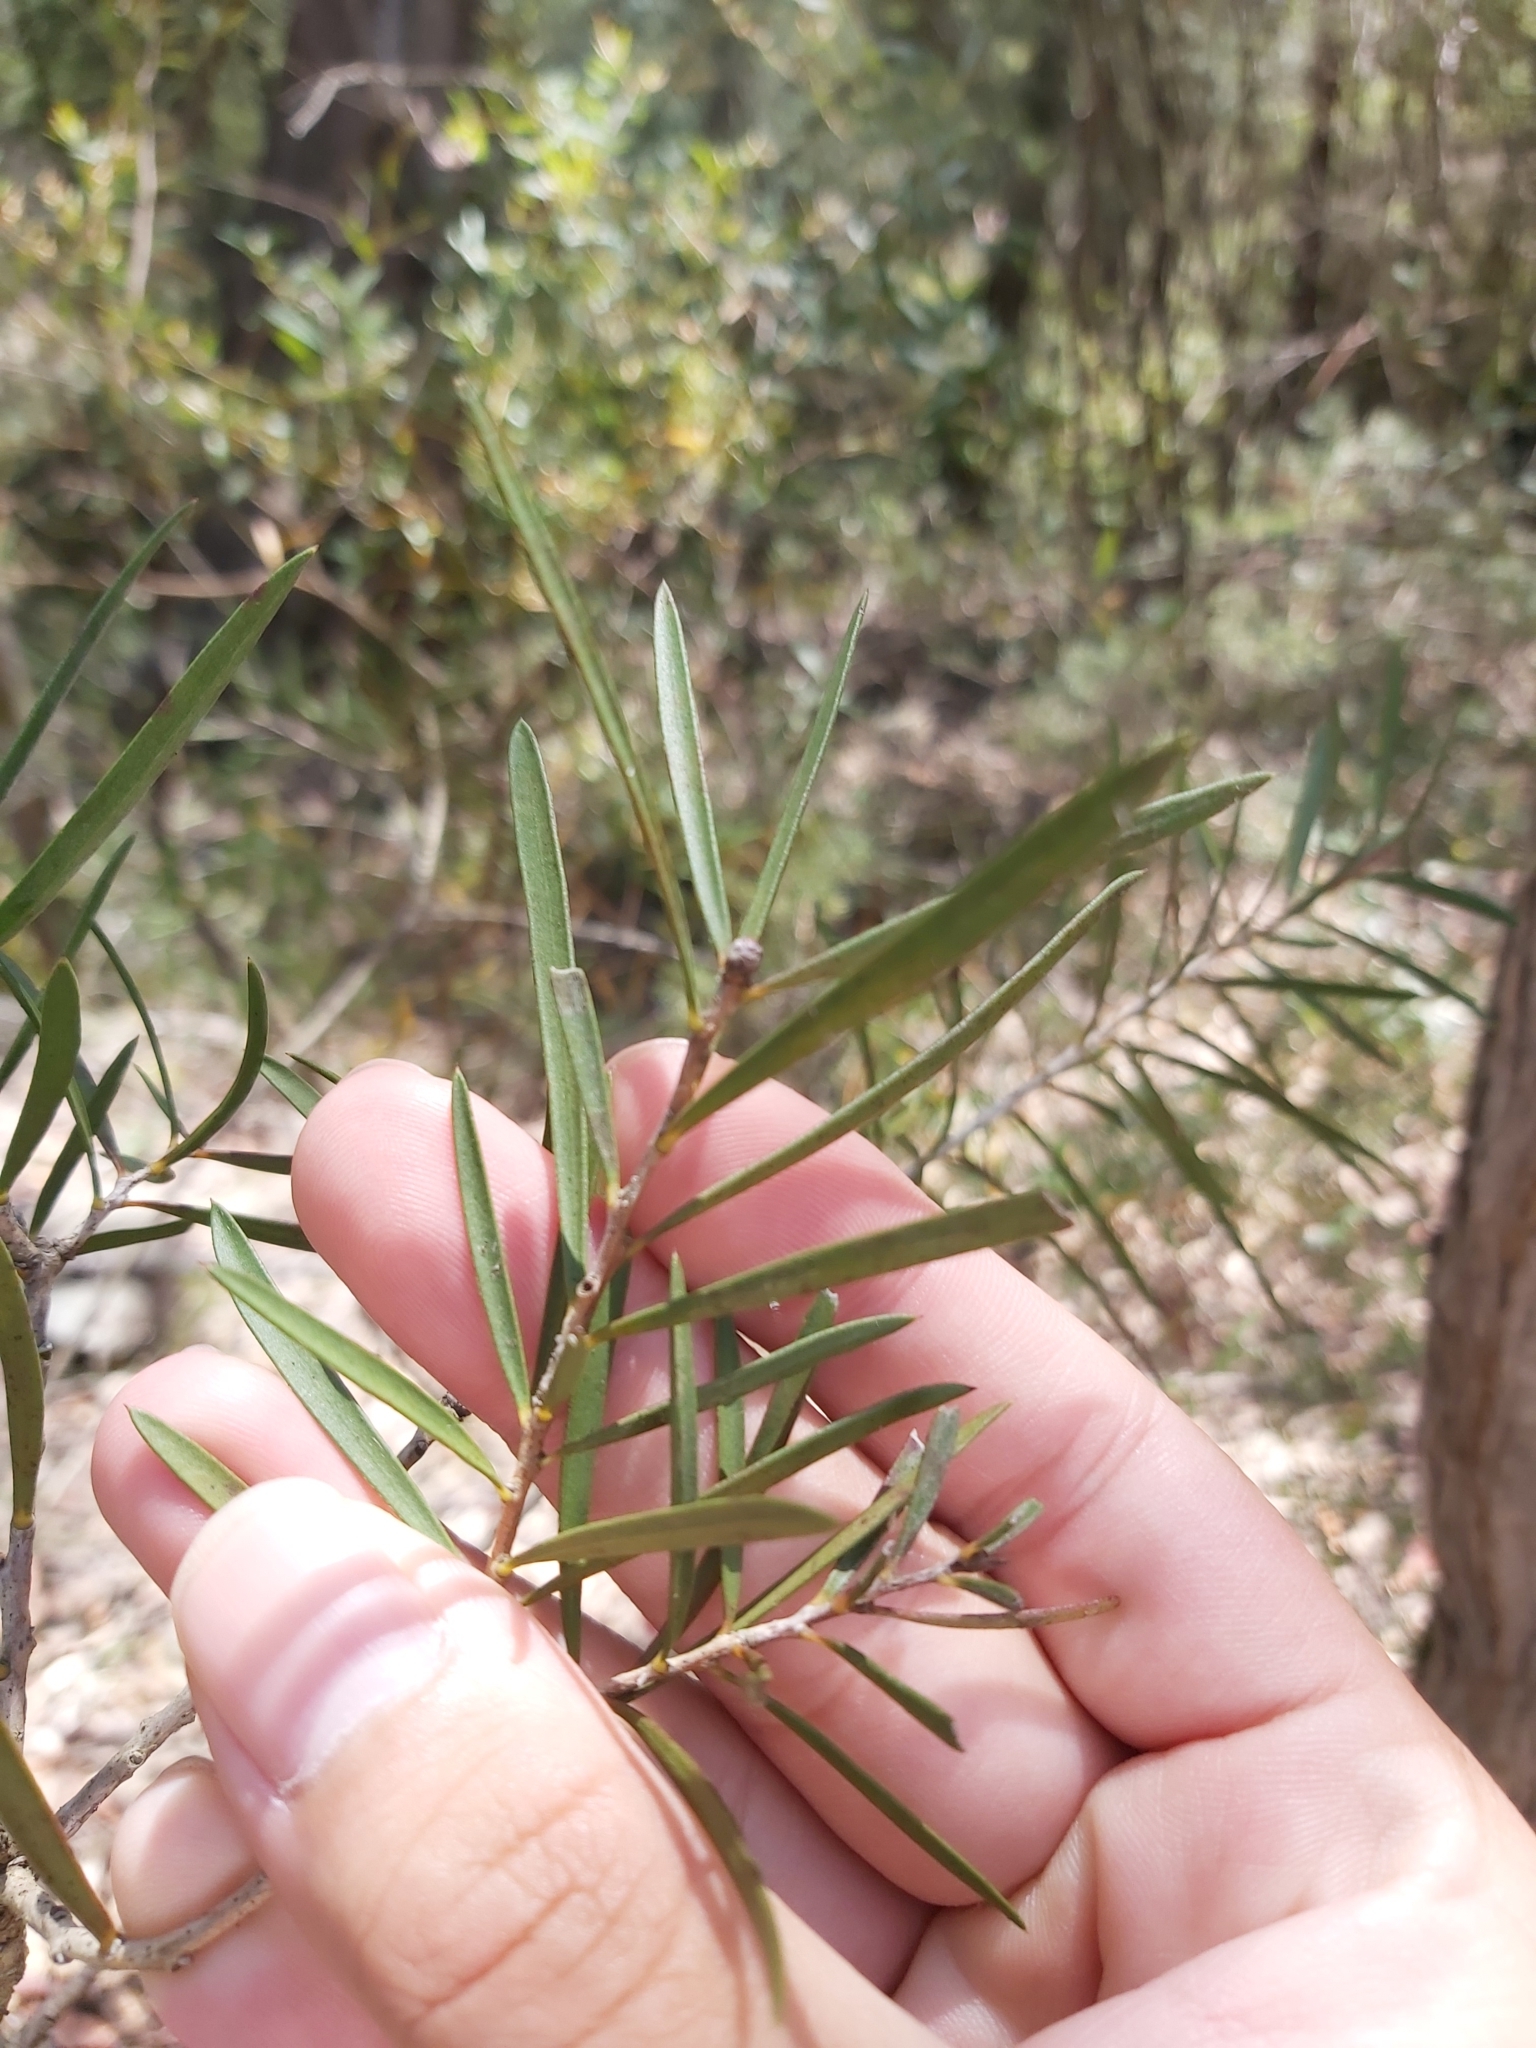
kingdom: Plantae
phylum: Tracheophyta
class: Magnoliopsida
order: Myrtales
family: Myrtaceae
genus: Callistemon
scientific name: Callistemon linearis
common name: Narrow-leaf bottlebrush
